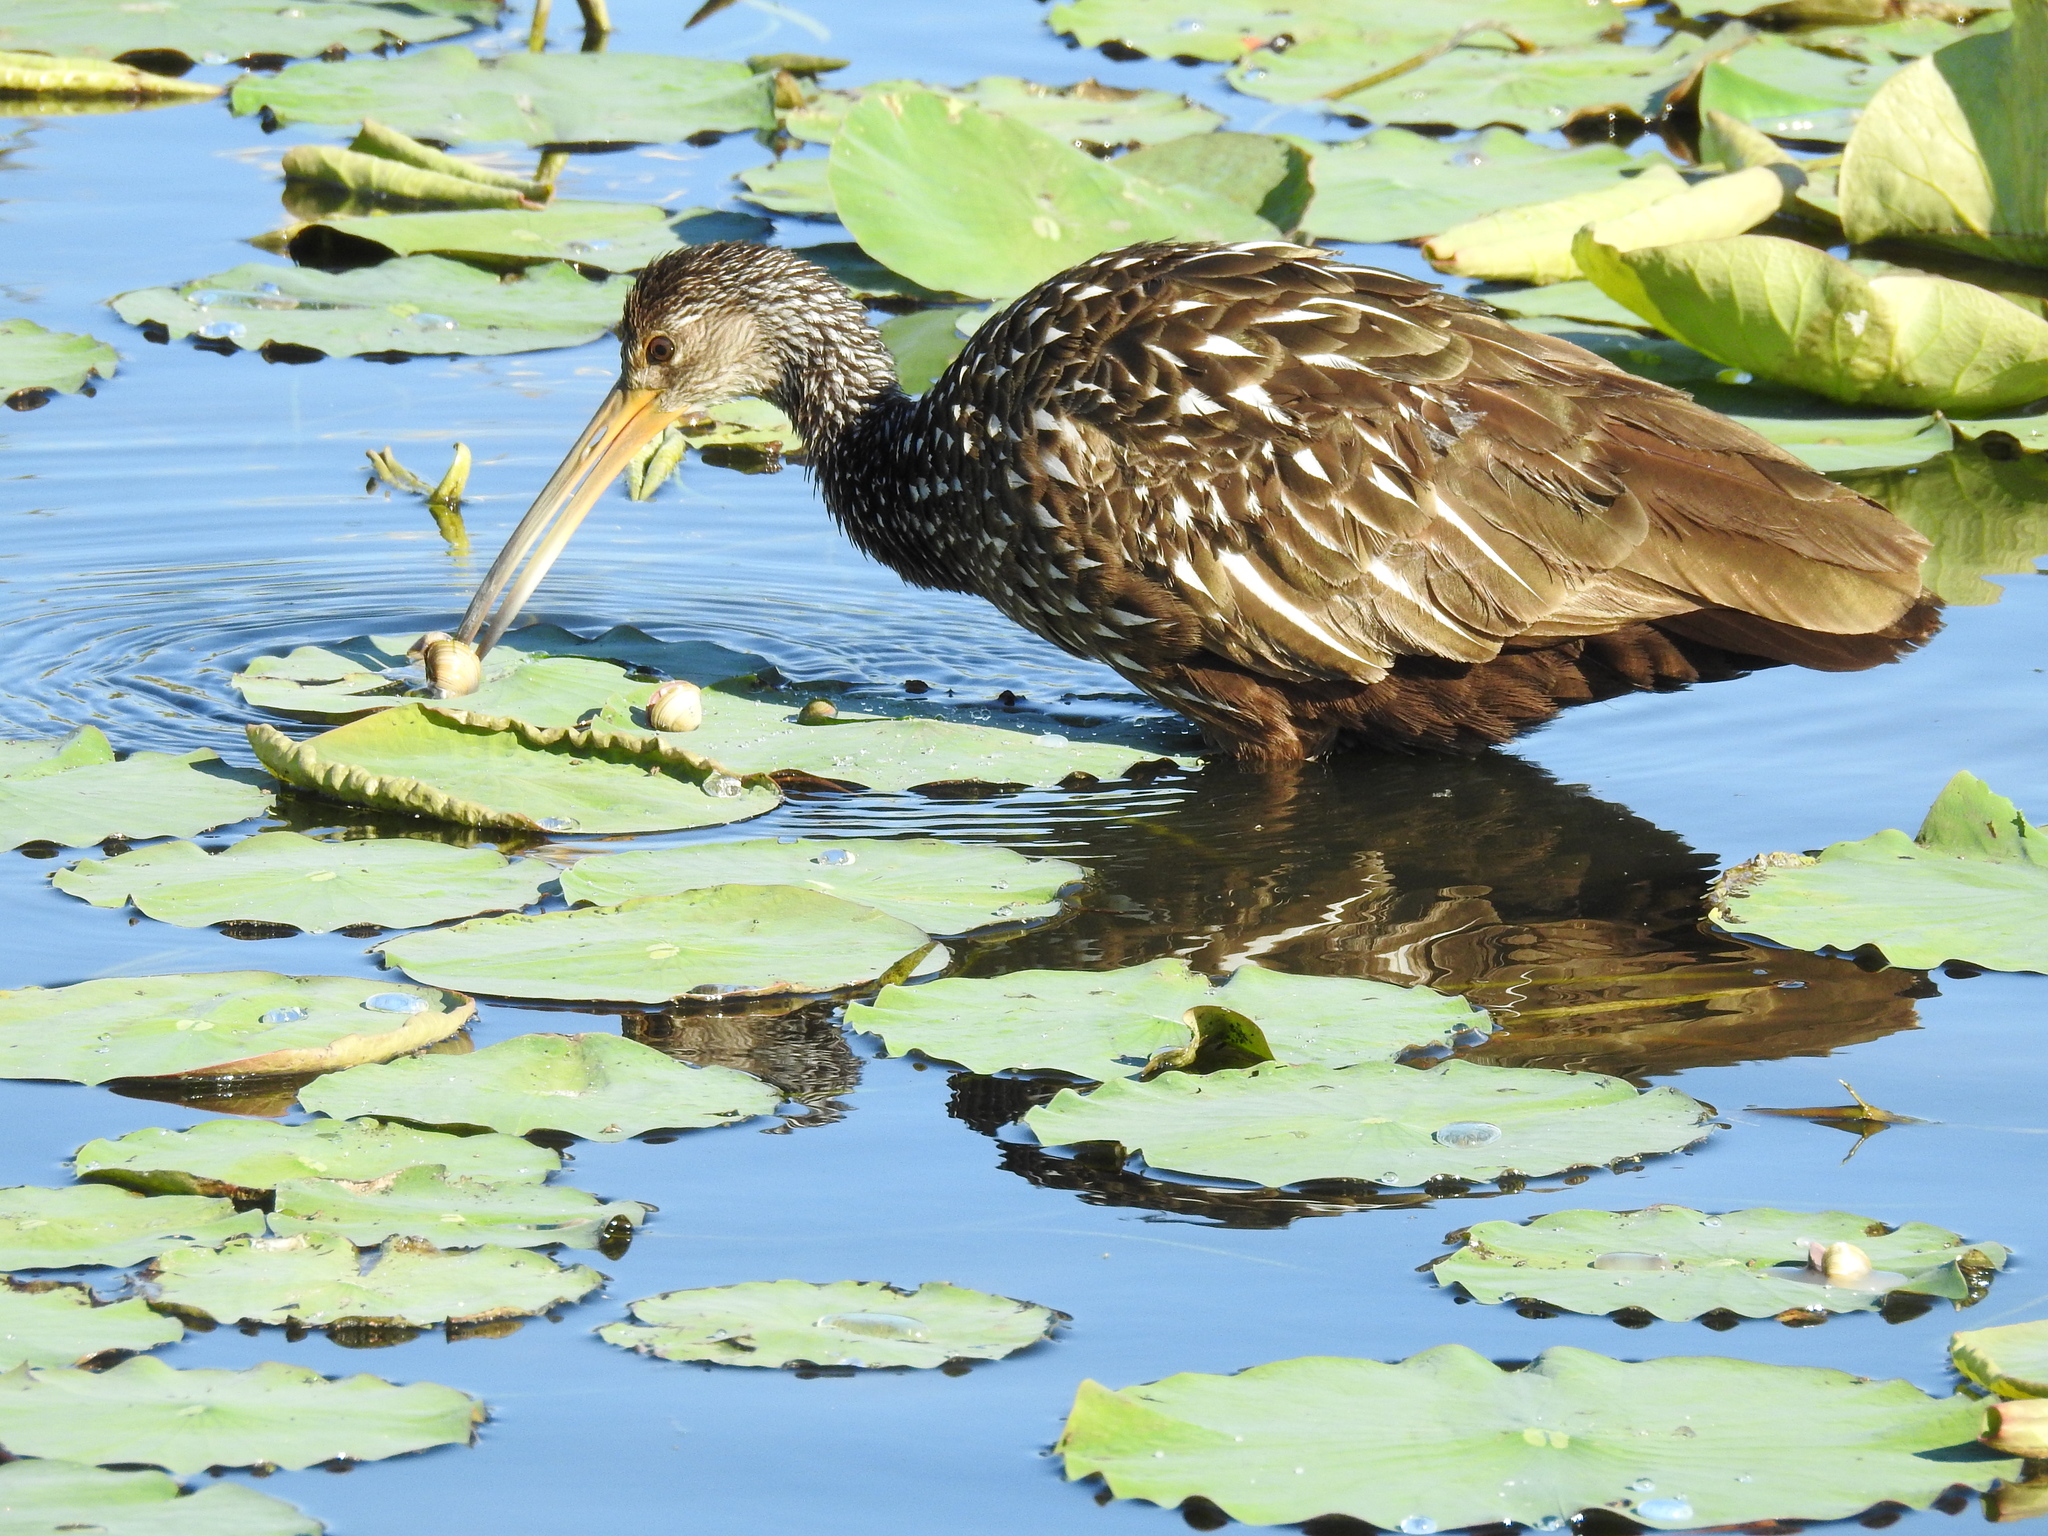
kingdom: Animalia
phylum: Chordata
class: Aves
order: Gruiformes
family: Aramidae
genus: Aramus
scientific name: Aramus guarauna
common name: Limpkin
